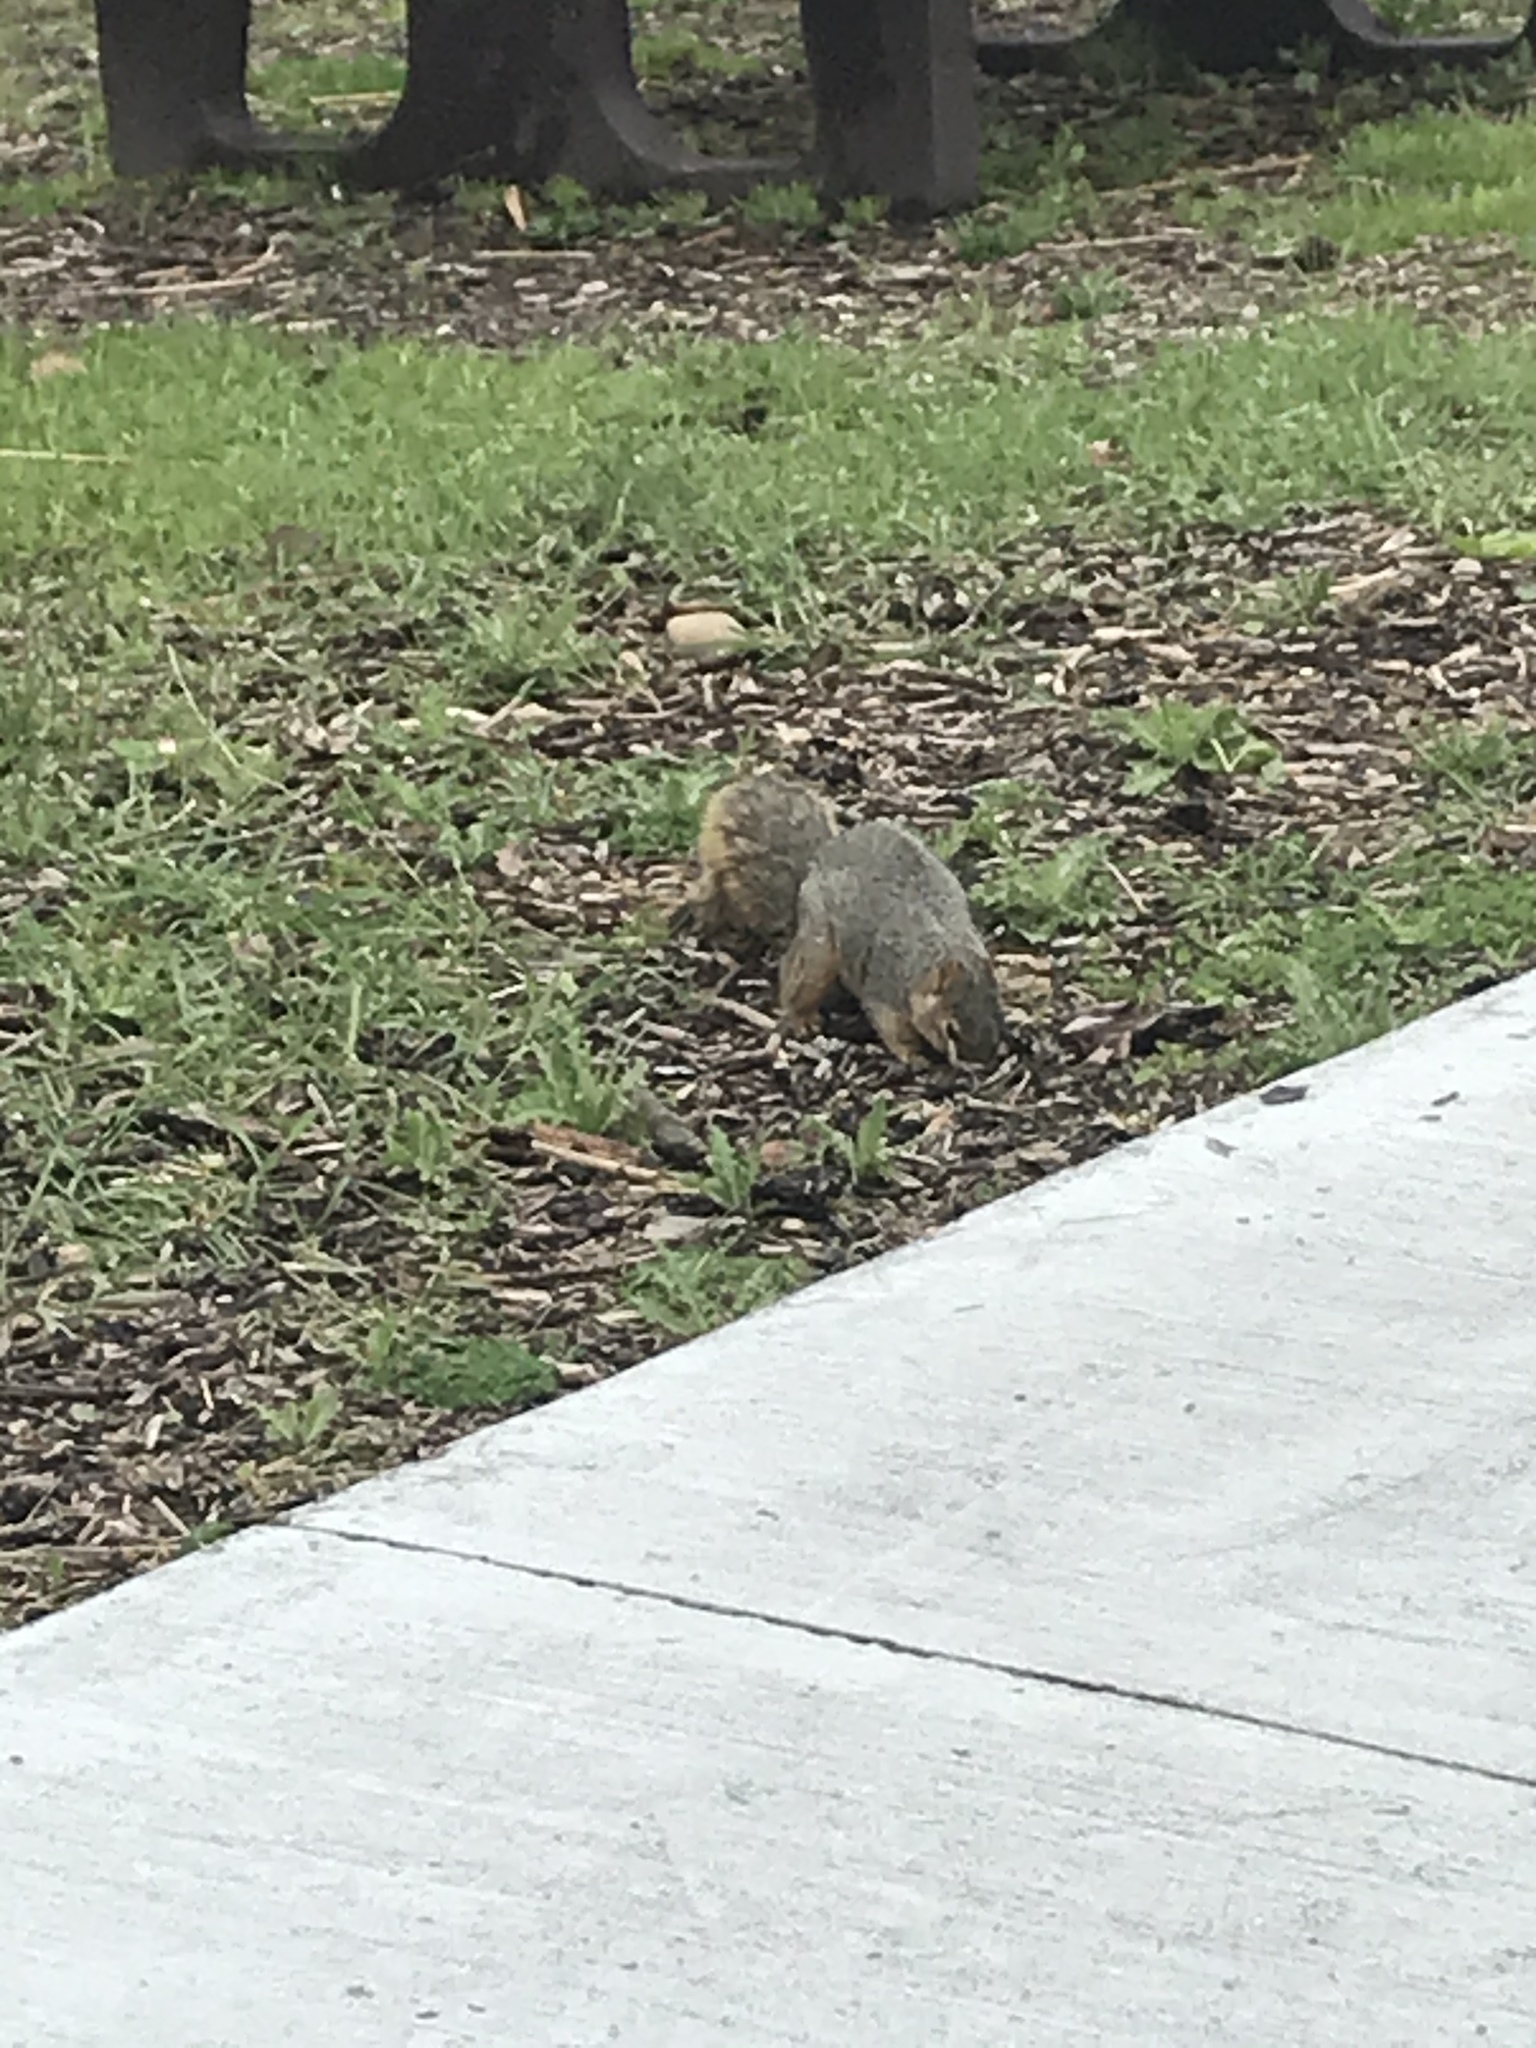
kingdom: Animalia
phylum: Chordata
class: Mammalia
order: Rodentia
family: Sciuridae
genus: Sciurus
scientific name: Sciurus niger
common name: Fox squirrel
